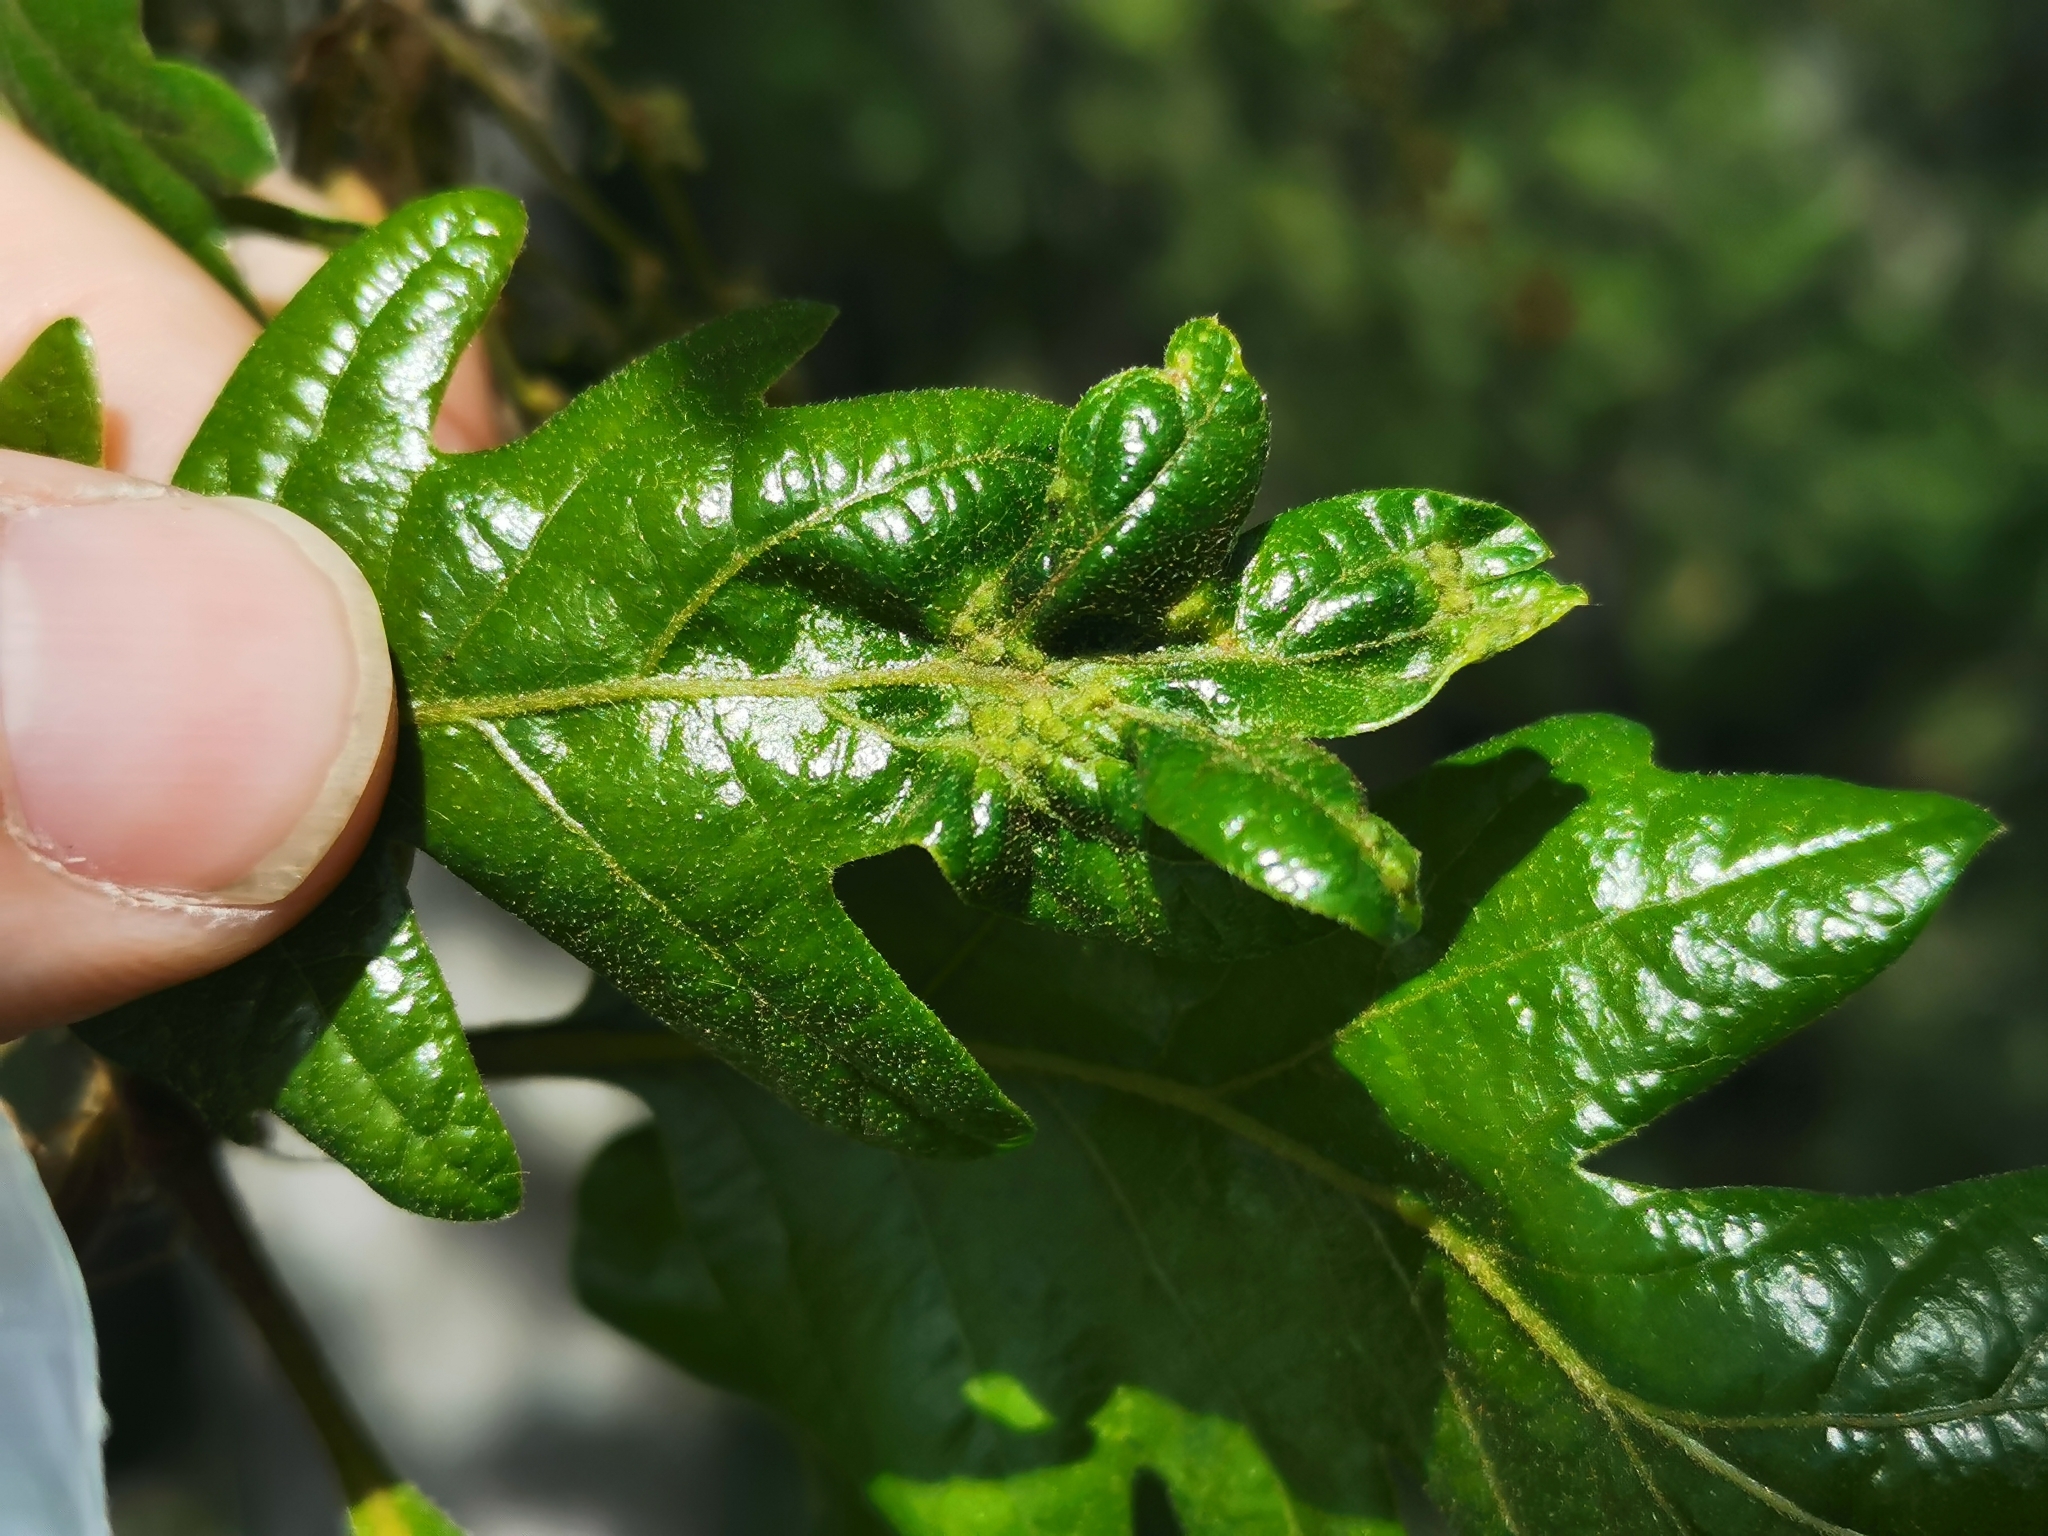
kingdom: Animalia
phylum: Arthropoda
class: Insecta
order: Hymenoptera
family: Cynipidae
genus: Neuroterus
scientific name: Neuroterus saltarius
